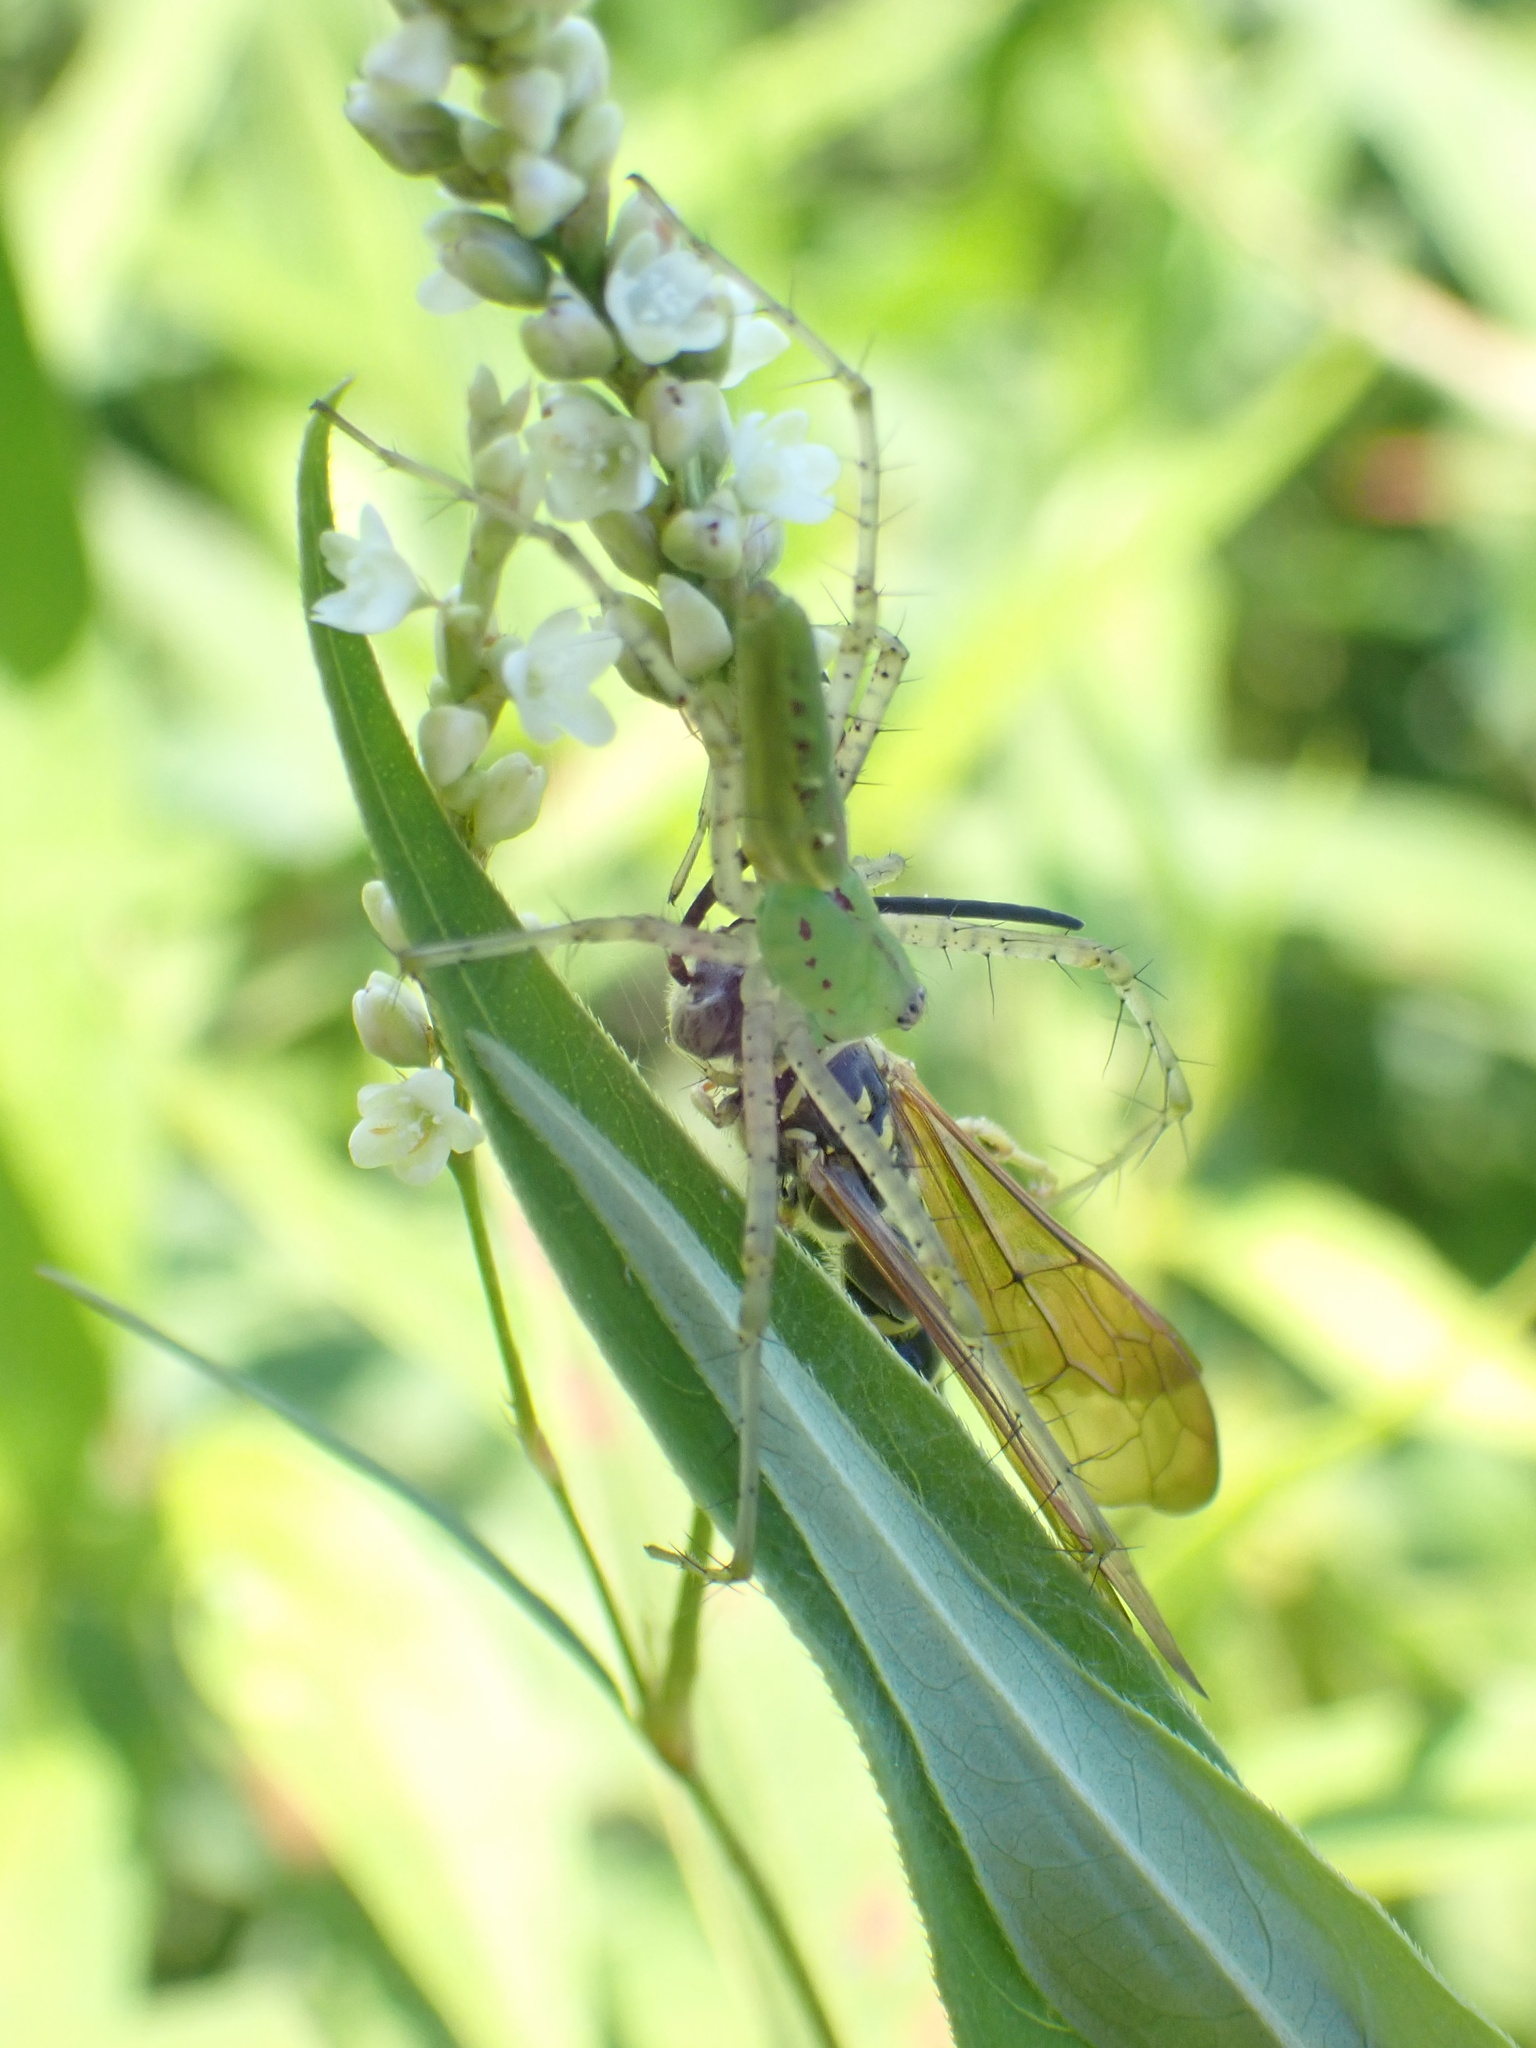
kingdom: Animalia
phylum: Arthropoda
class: Arachnida
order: Araneae
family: Oxyopidae
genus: Peucetia
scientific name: Peucetia viridans
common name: Lynx spiders
